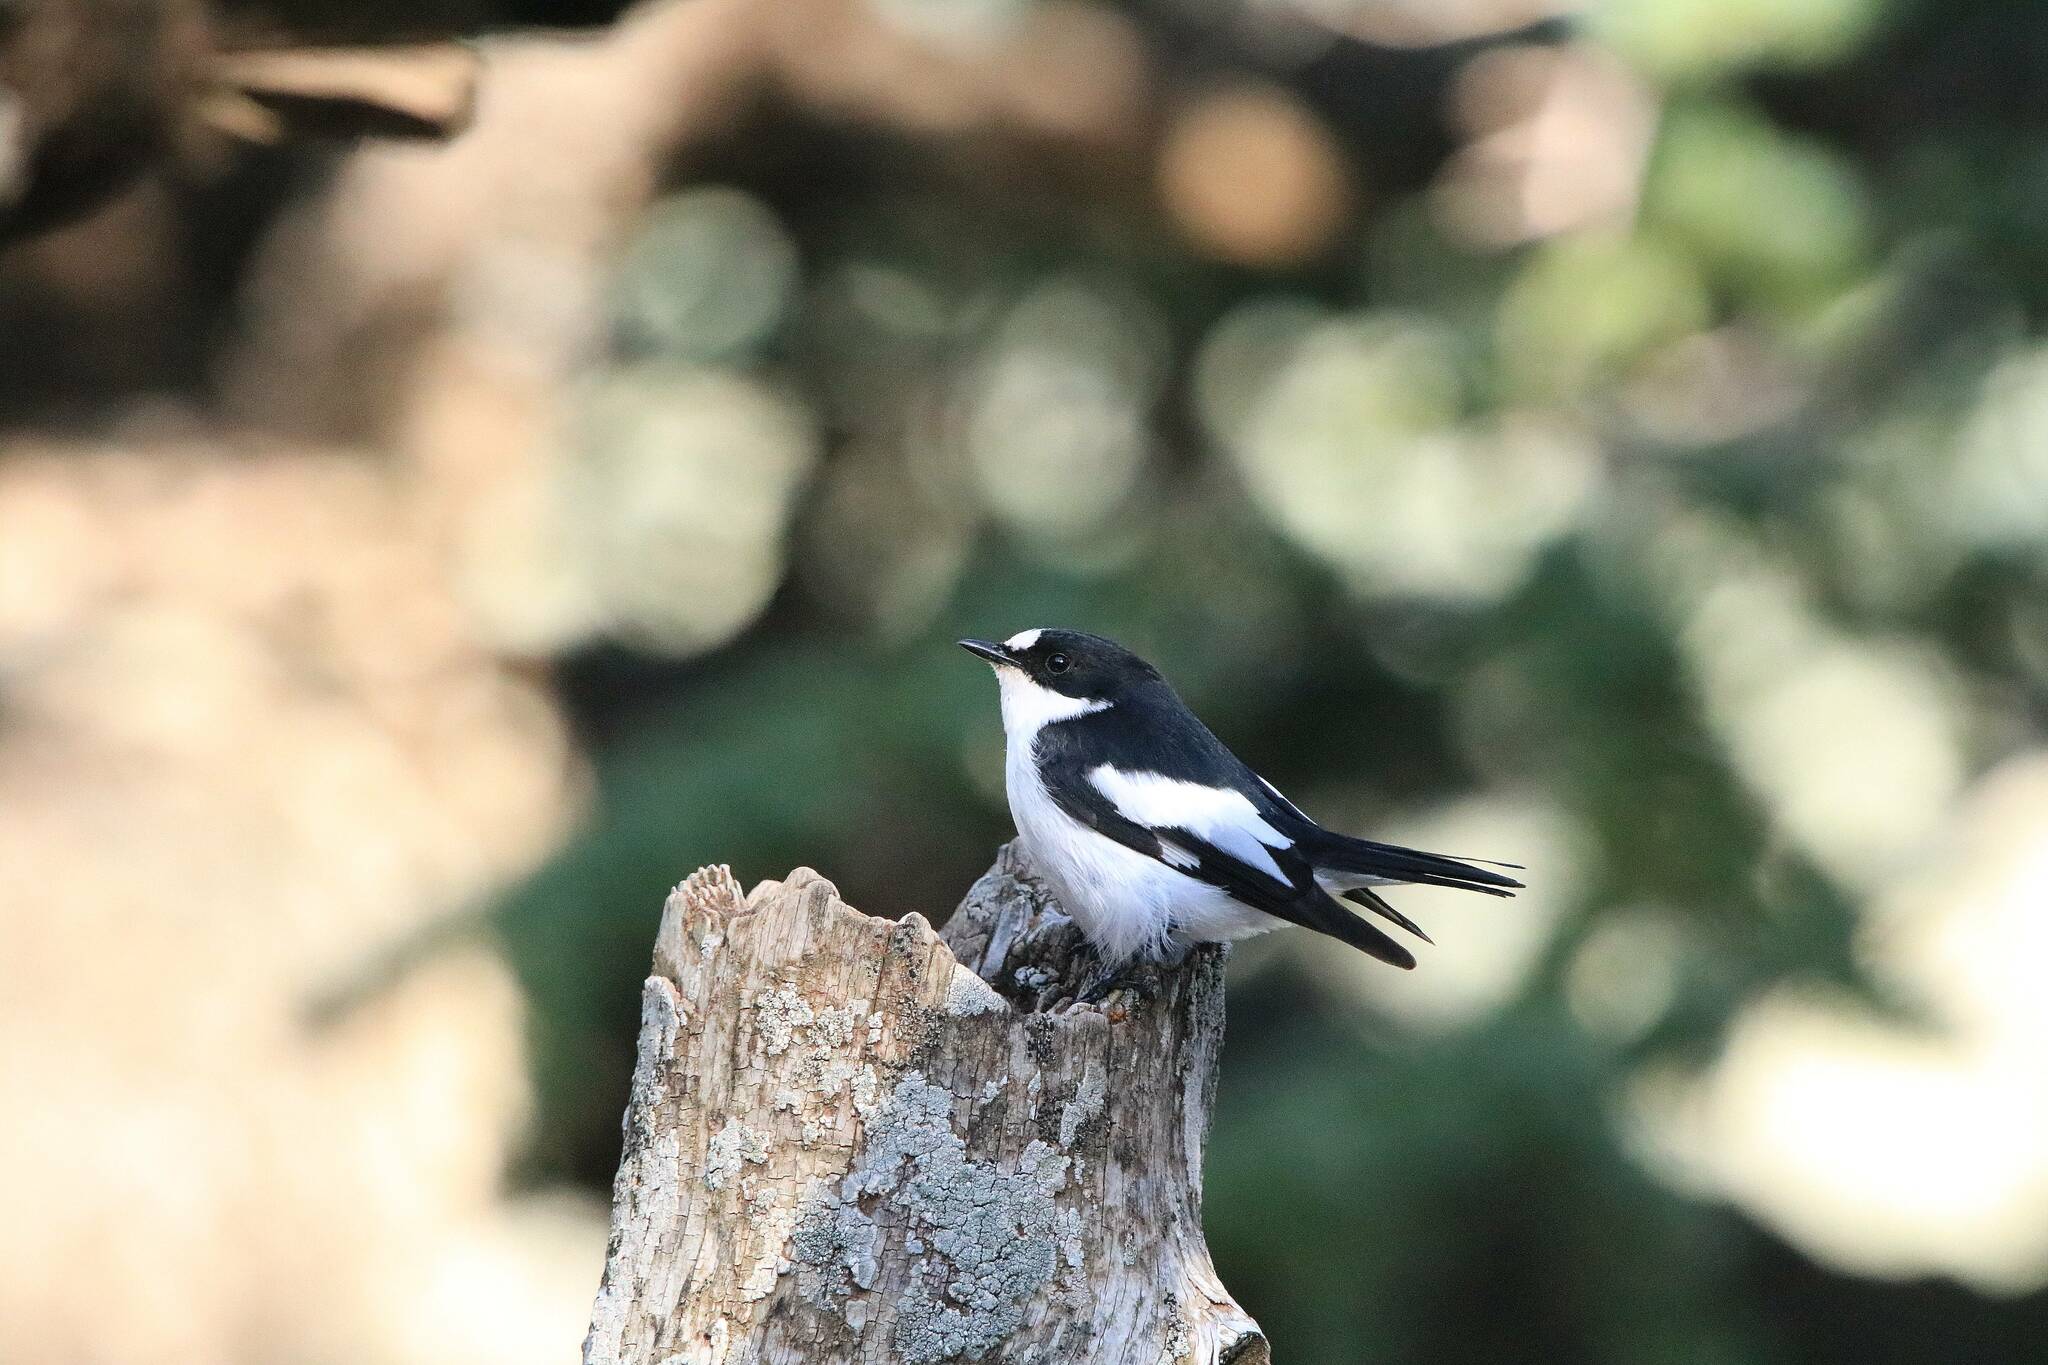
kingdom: Animalia
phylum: Chordata
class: Aves
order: Passeriformes
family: Muscicapidae
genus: Ficedula
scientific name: Ficedula speculigera
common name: Atlas pied flycatcher
